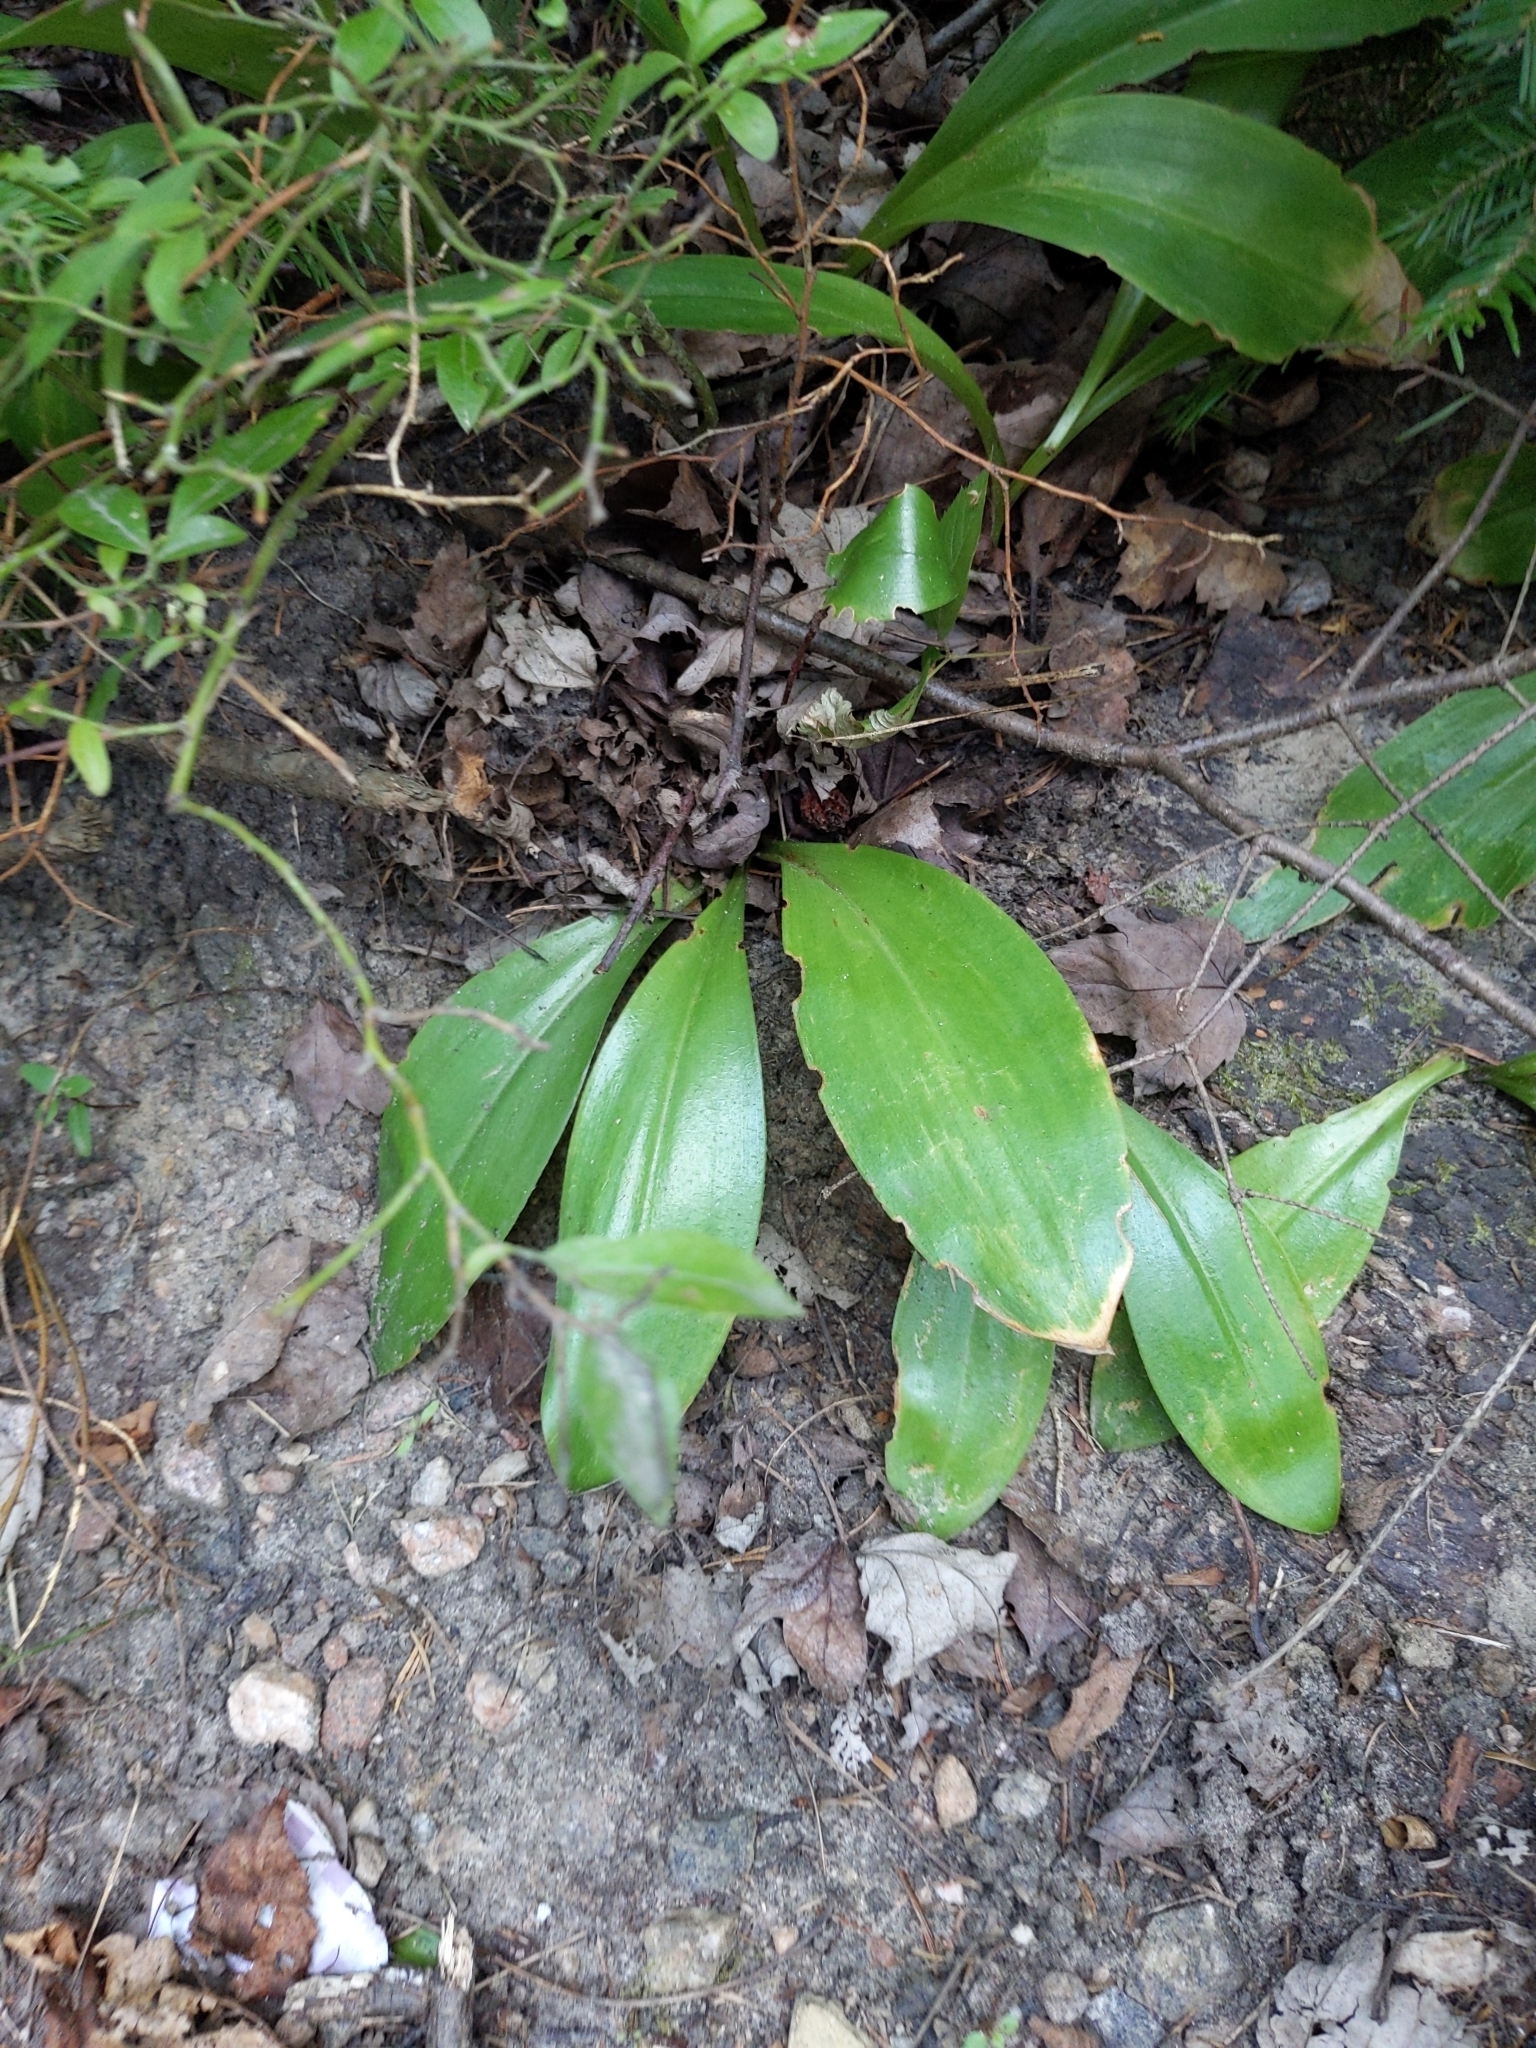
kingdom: Plantae
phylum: Tracheophyta
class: Liliopsida
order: Liliales
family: Liliaceae
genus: Clintonia
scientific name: Clintonia borealis
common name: Yellow clintonia
